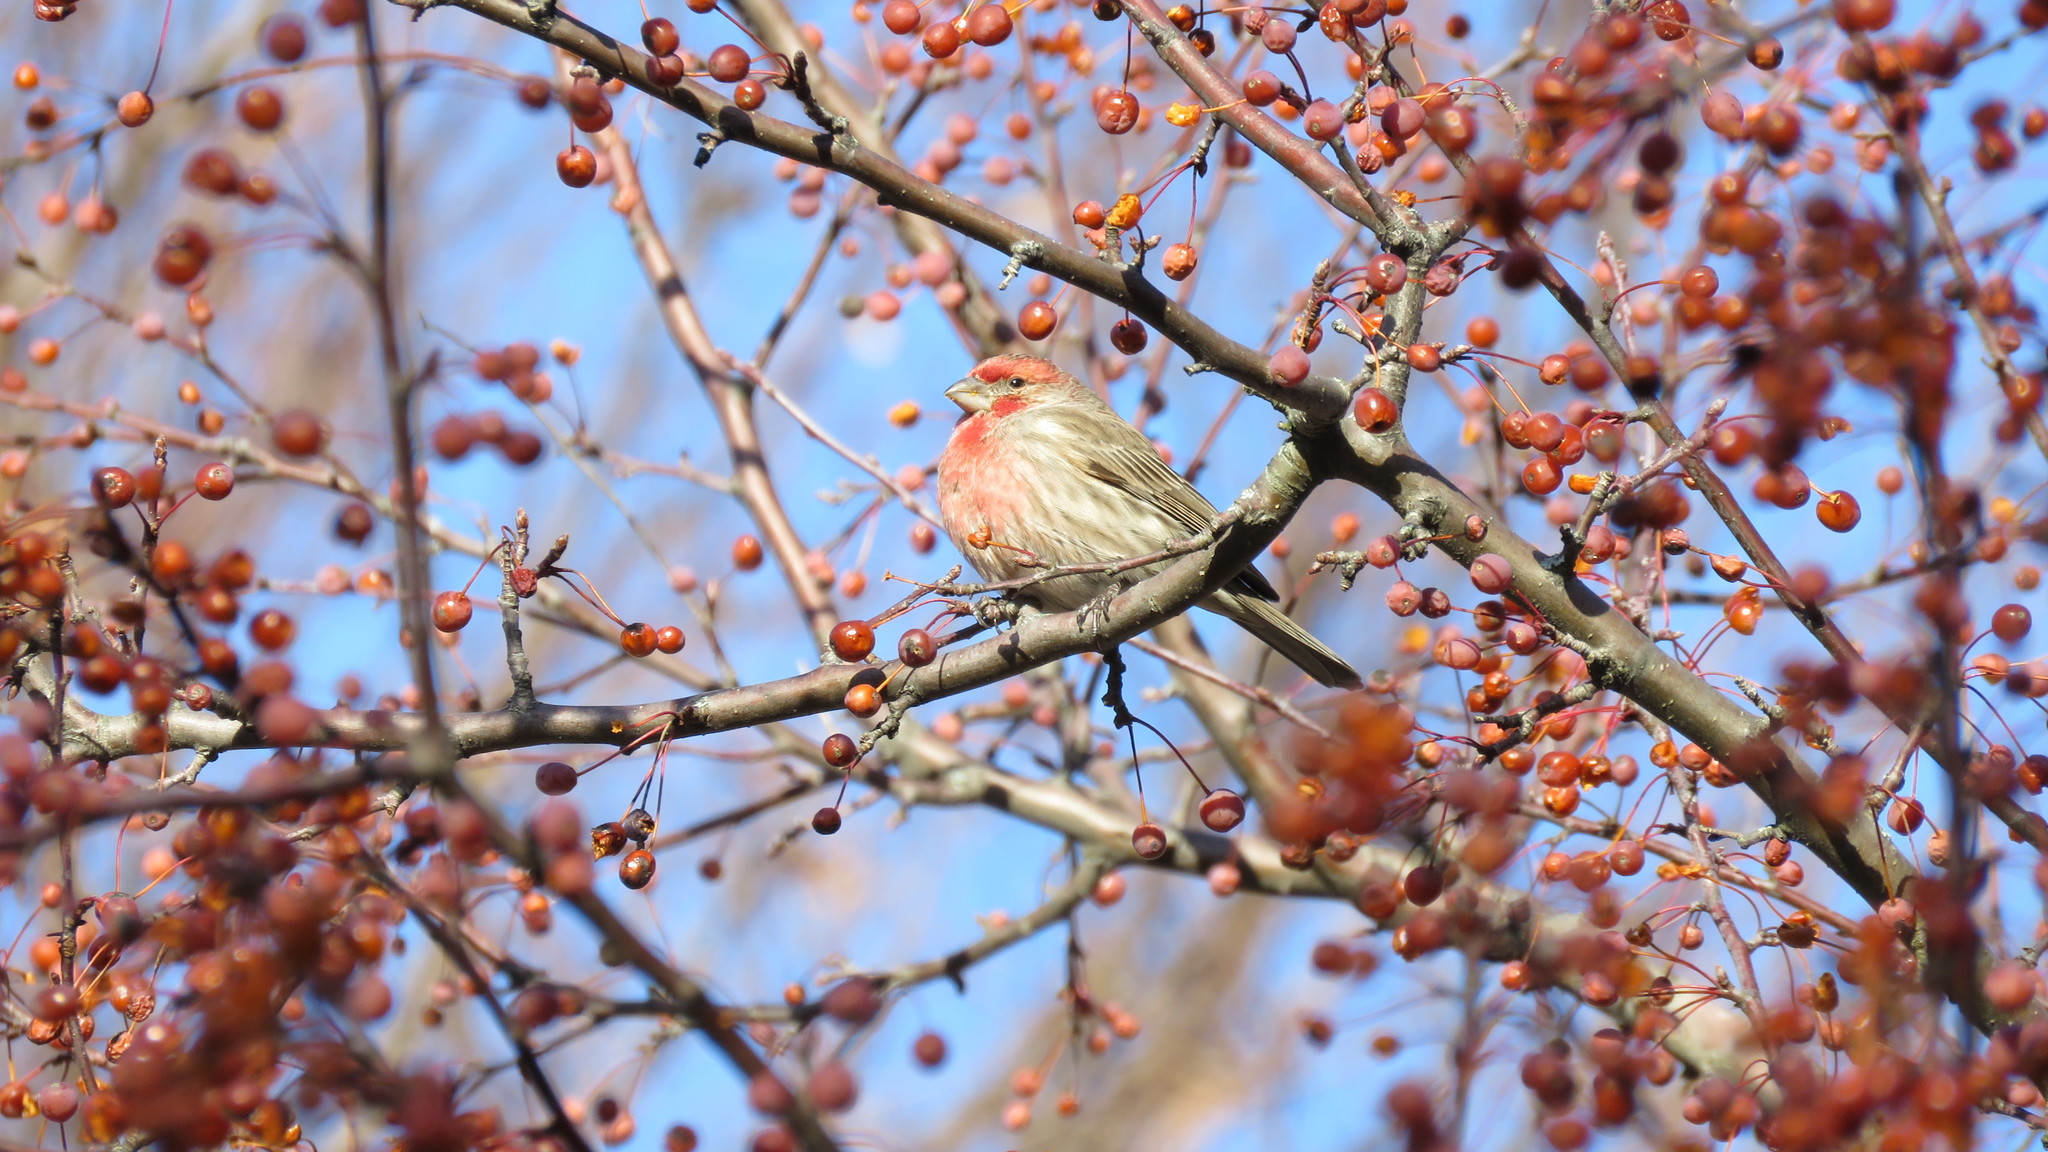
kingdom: Animalia
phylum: Chordata
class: Aves
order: Passeriformes
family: Fringillidae
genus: Haemorhous
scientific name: Haemorhous mexicanus
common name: House finch
